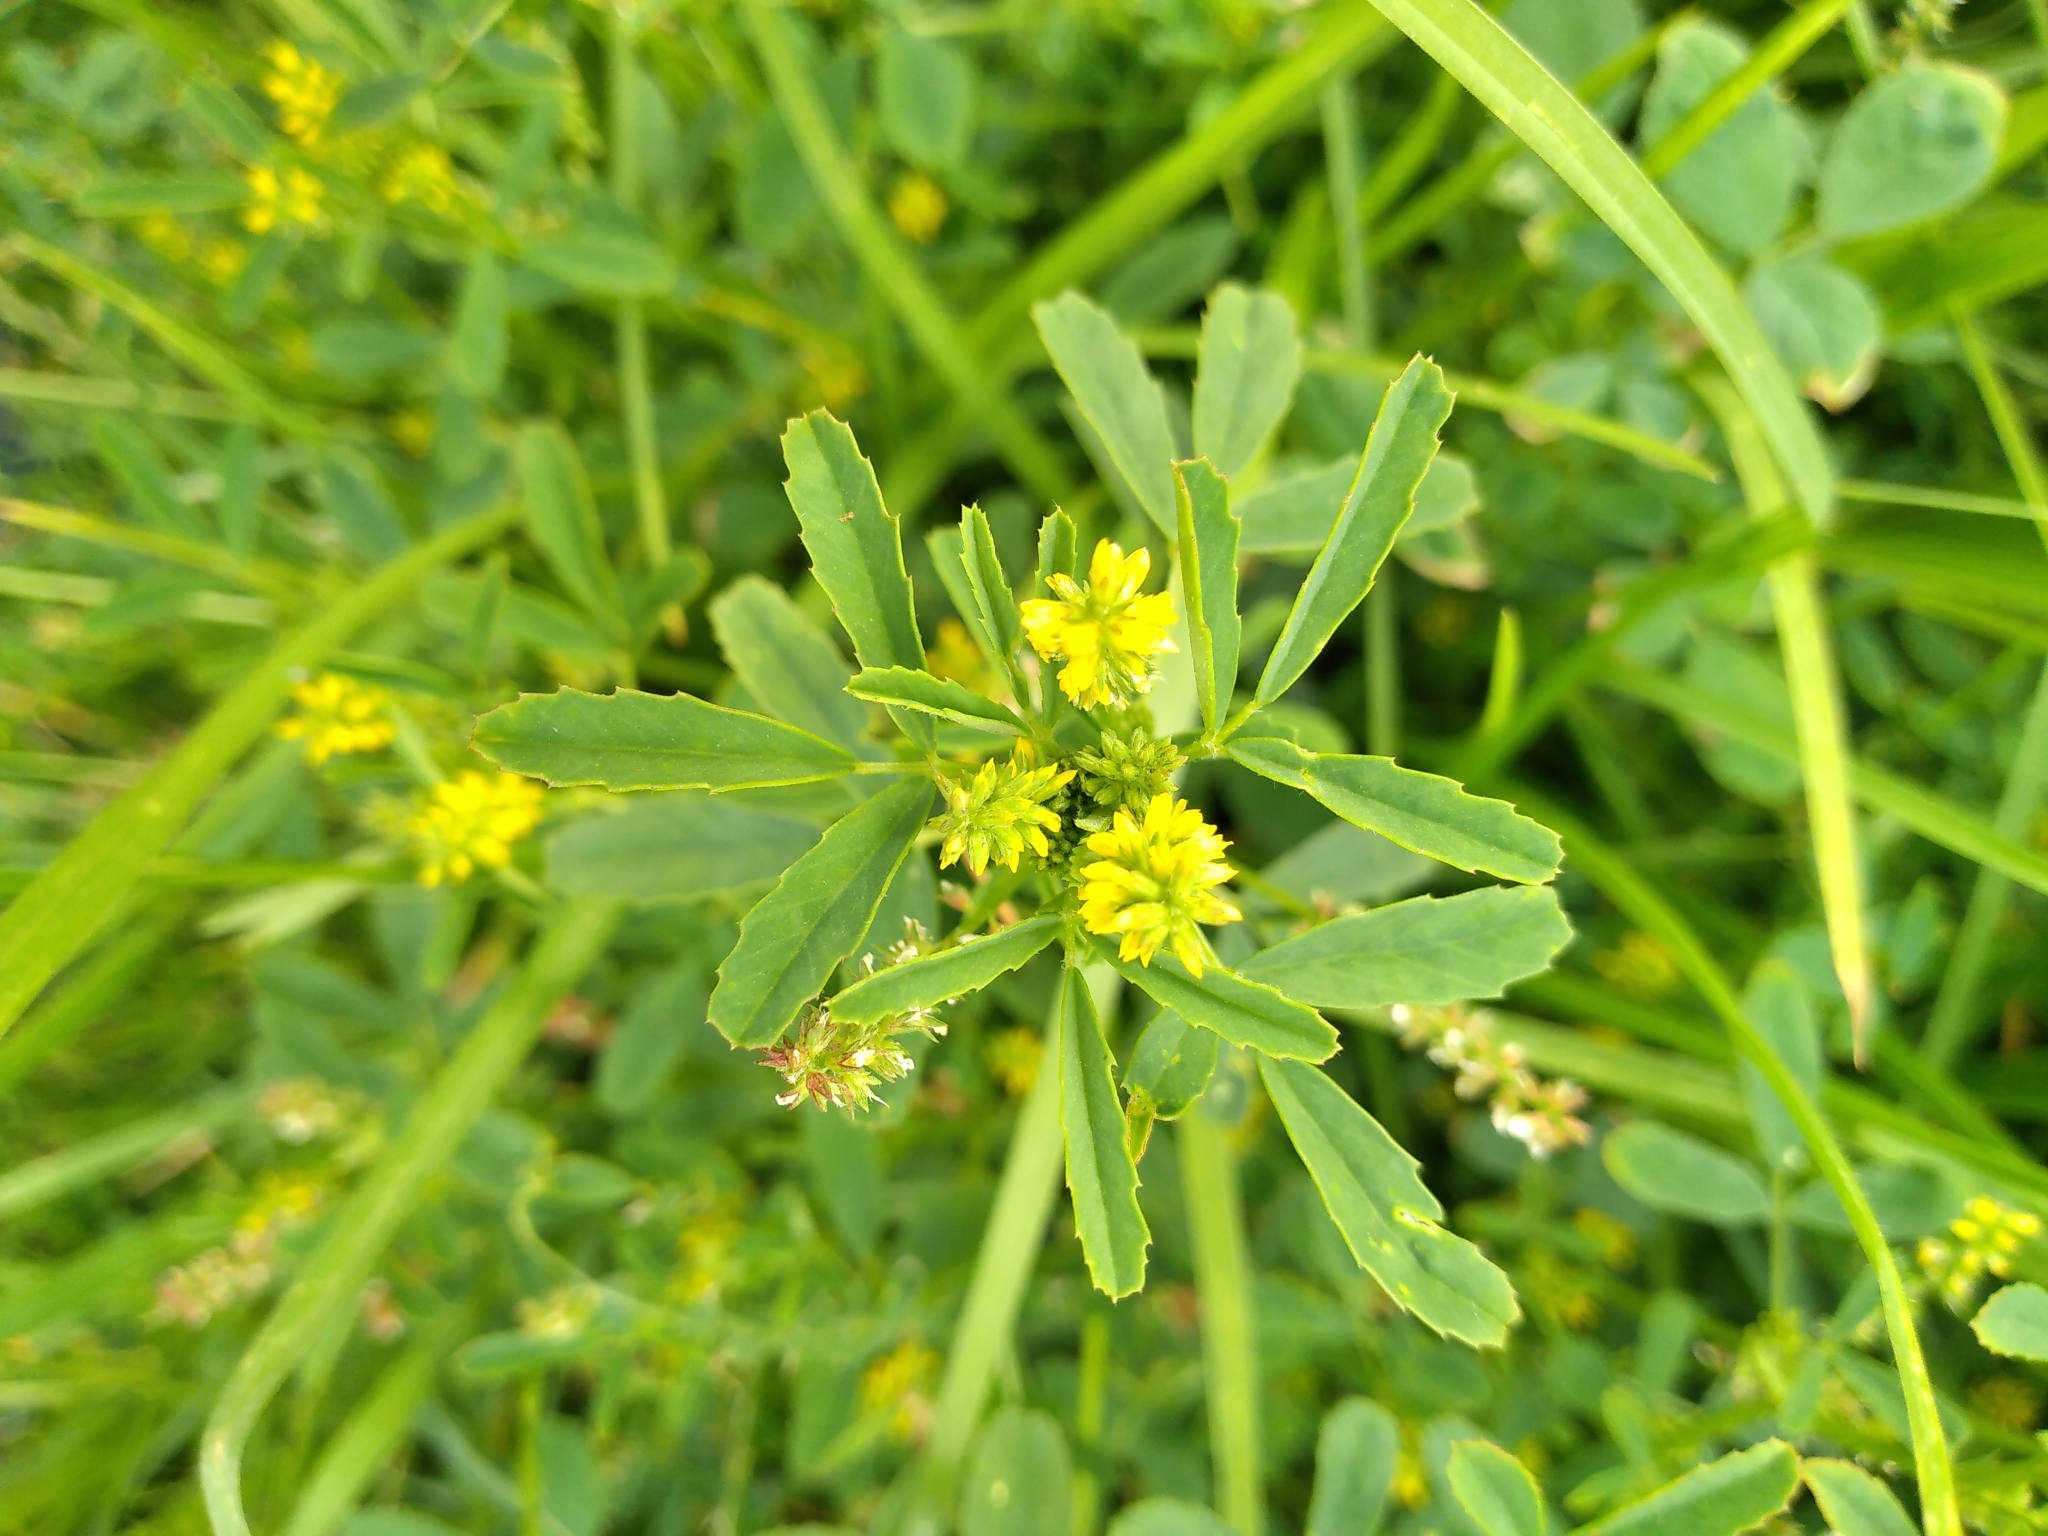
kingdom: Plantae
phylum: Tracheophyta
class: Magnoliopsida
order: Fabales
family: Fabaceae
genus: Melilotus
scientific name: Melilotus indicus
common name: Small melilot
